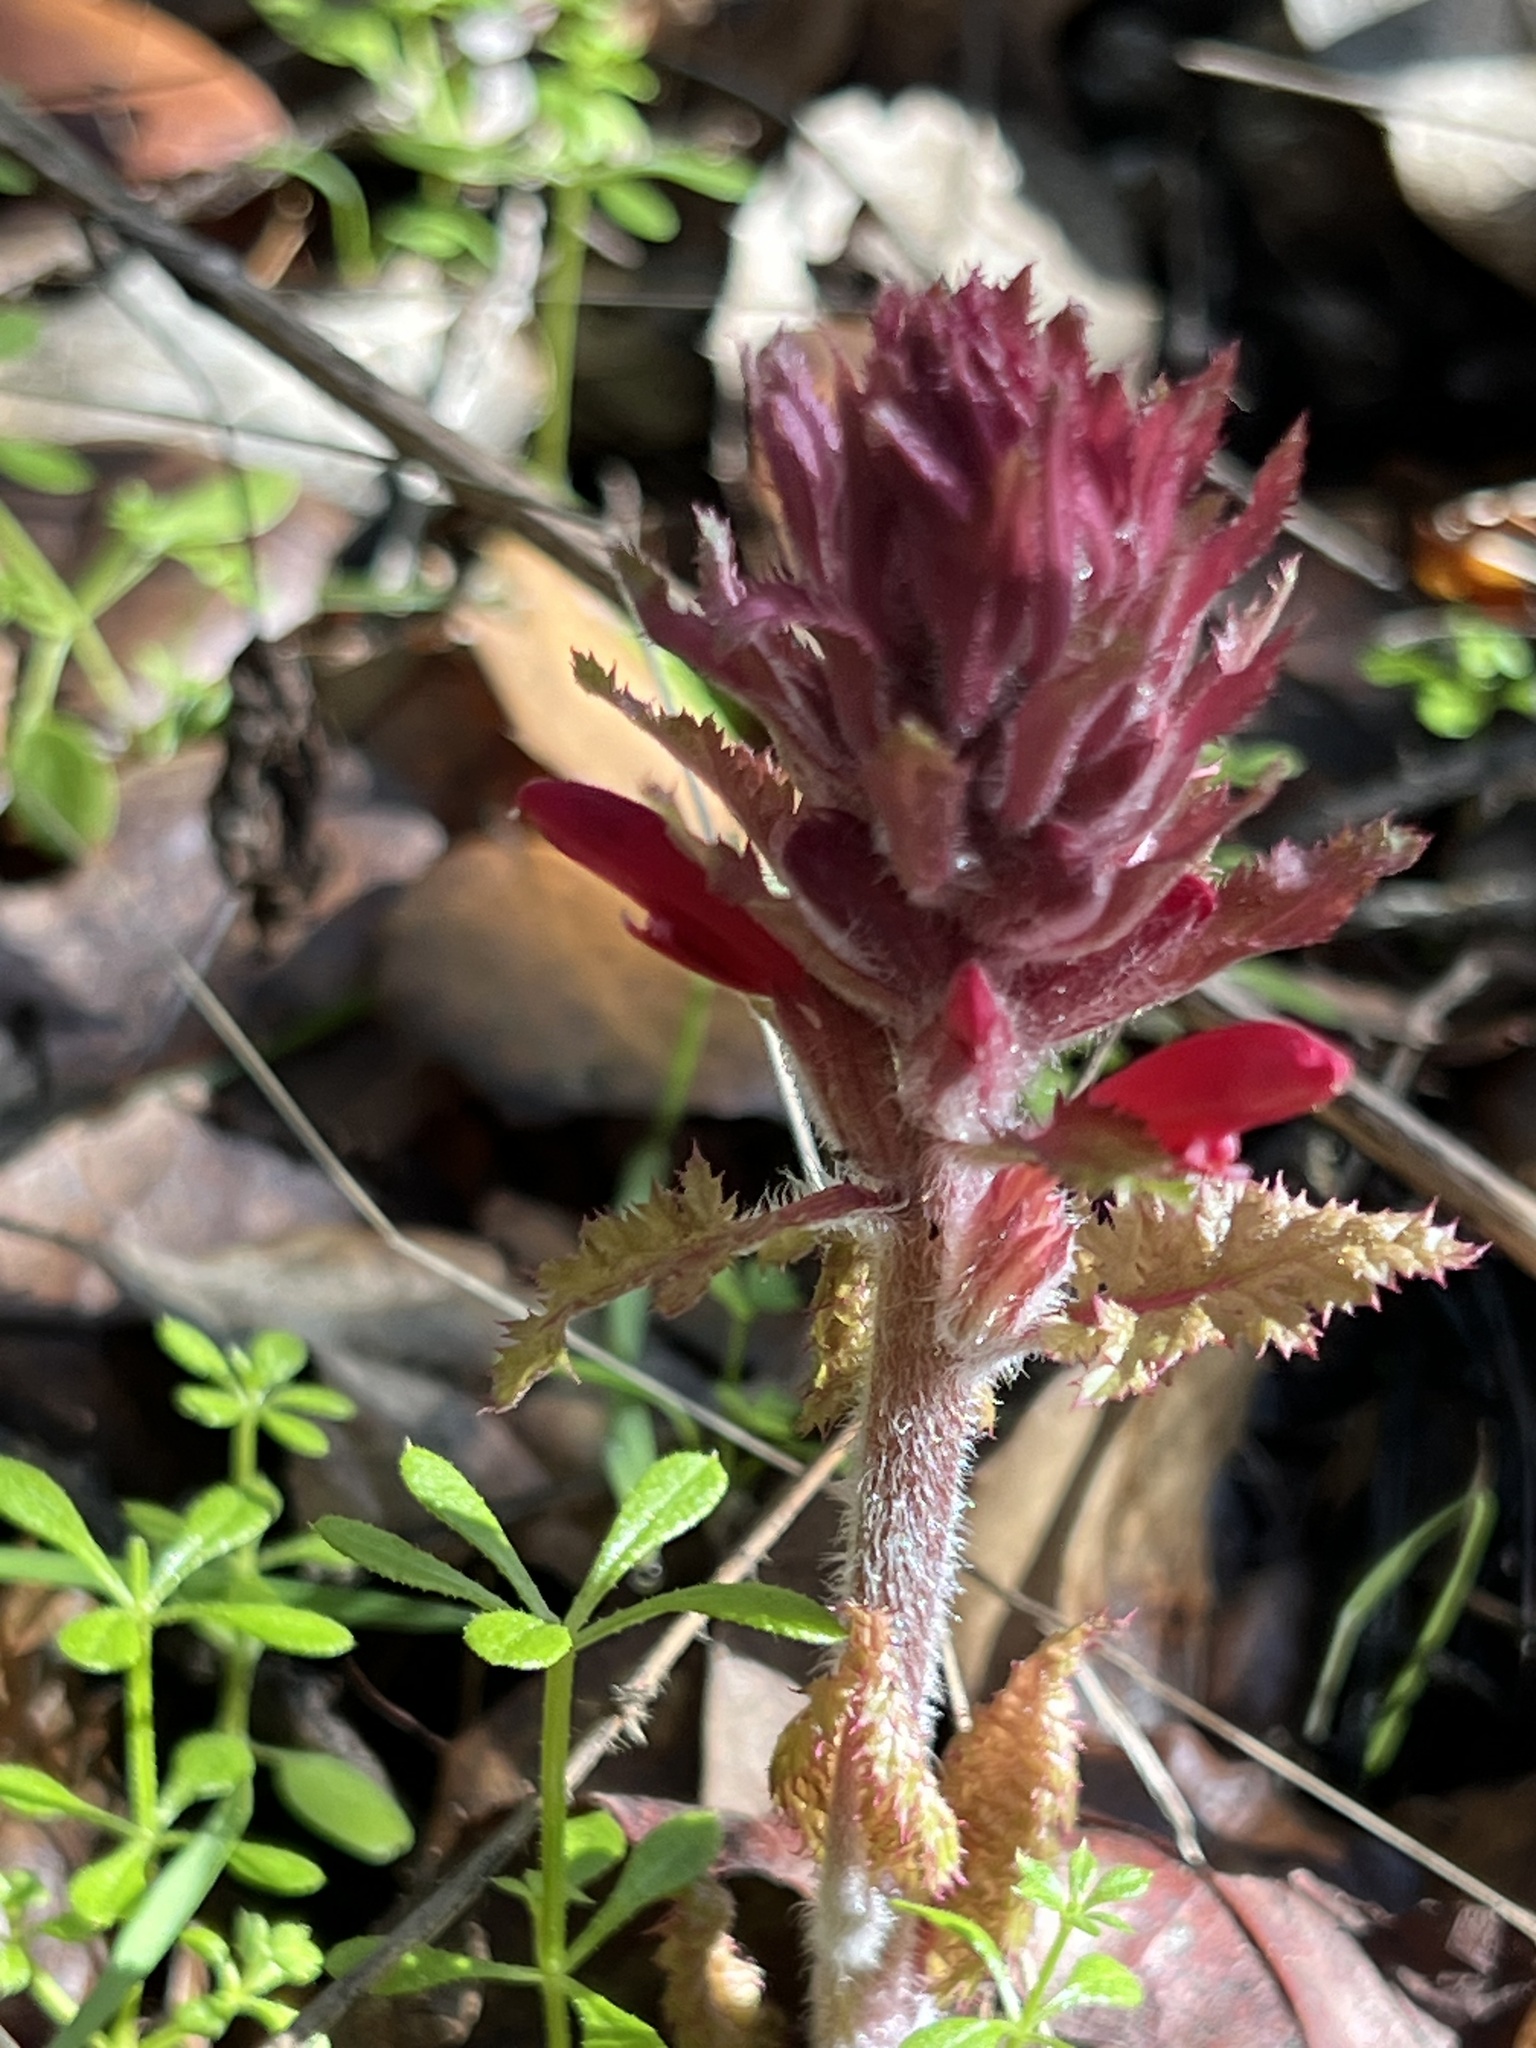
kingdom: Plantae
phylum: Tracheophyta
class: Magnoliopsida
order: Lamiales
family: Orobanchaceae
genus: Pedicularis
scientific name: Pedicularis densiflora
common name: Indian warrior
